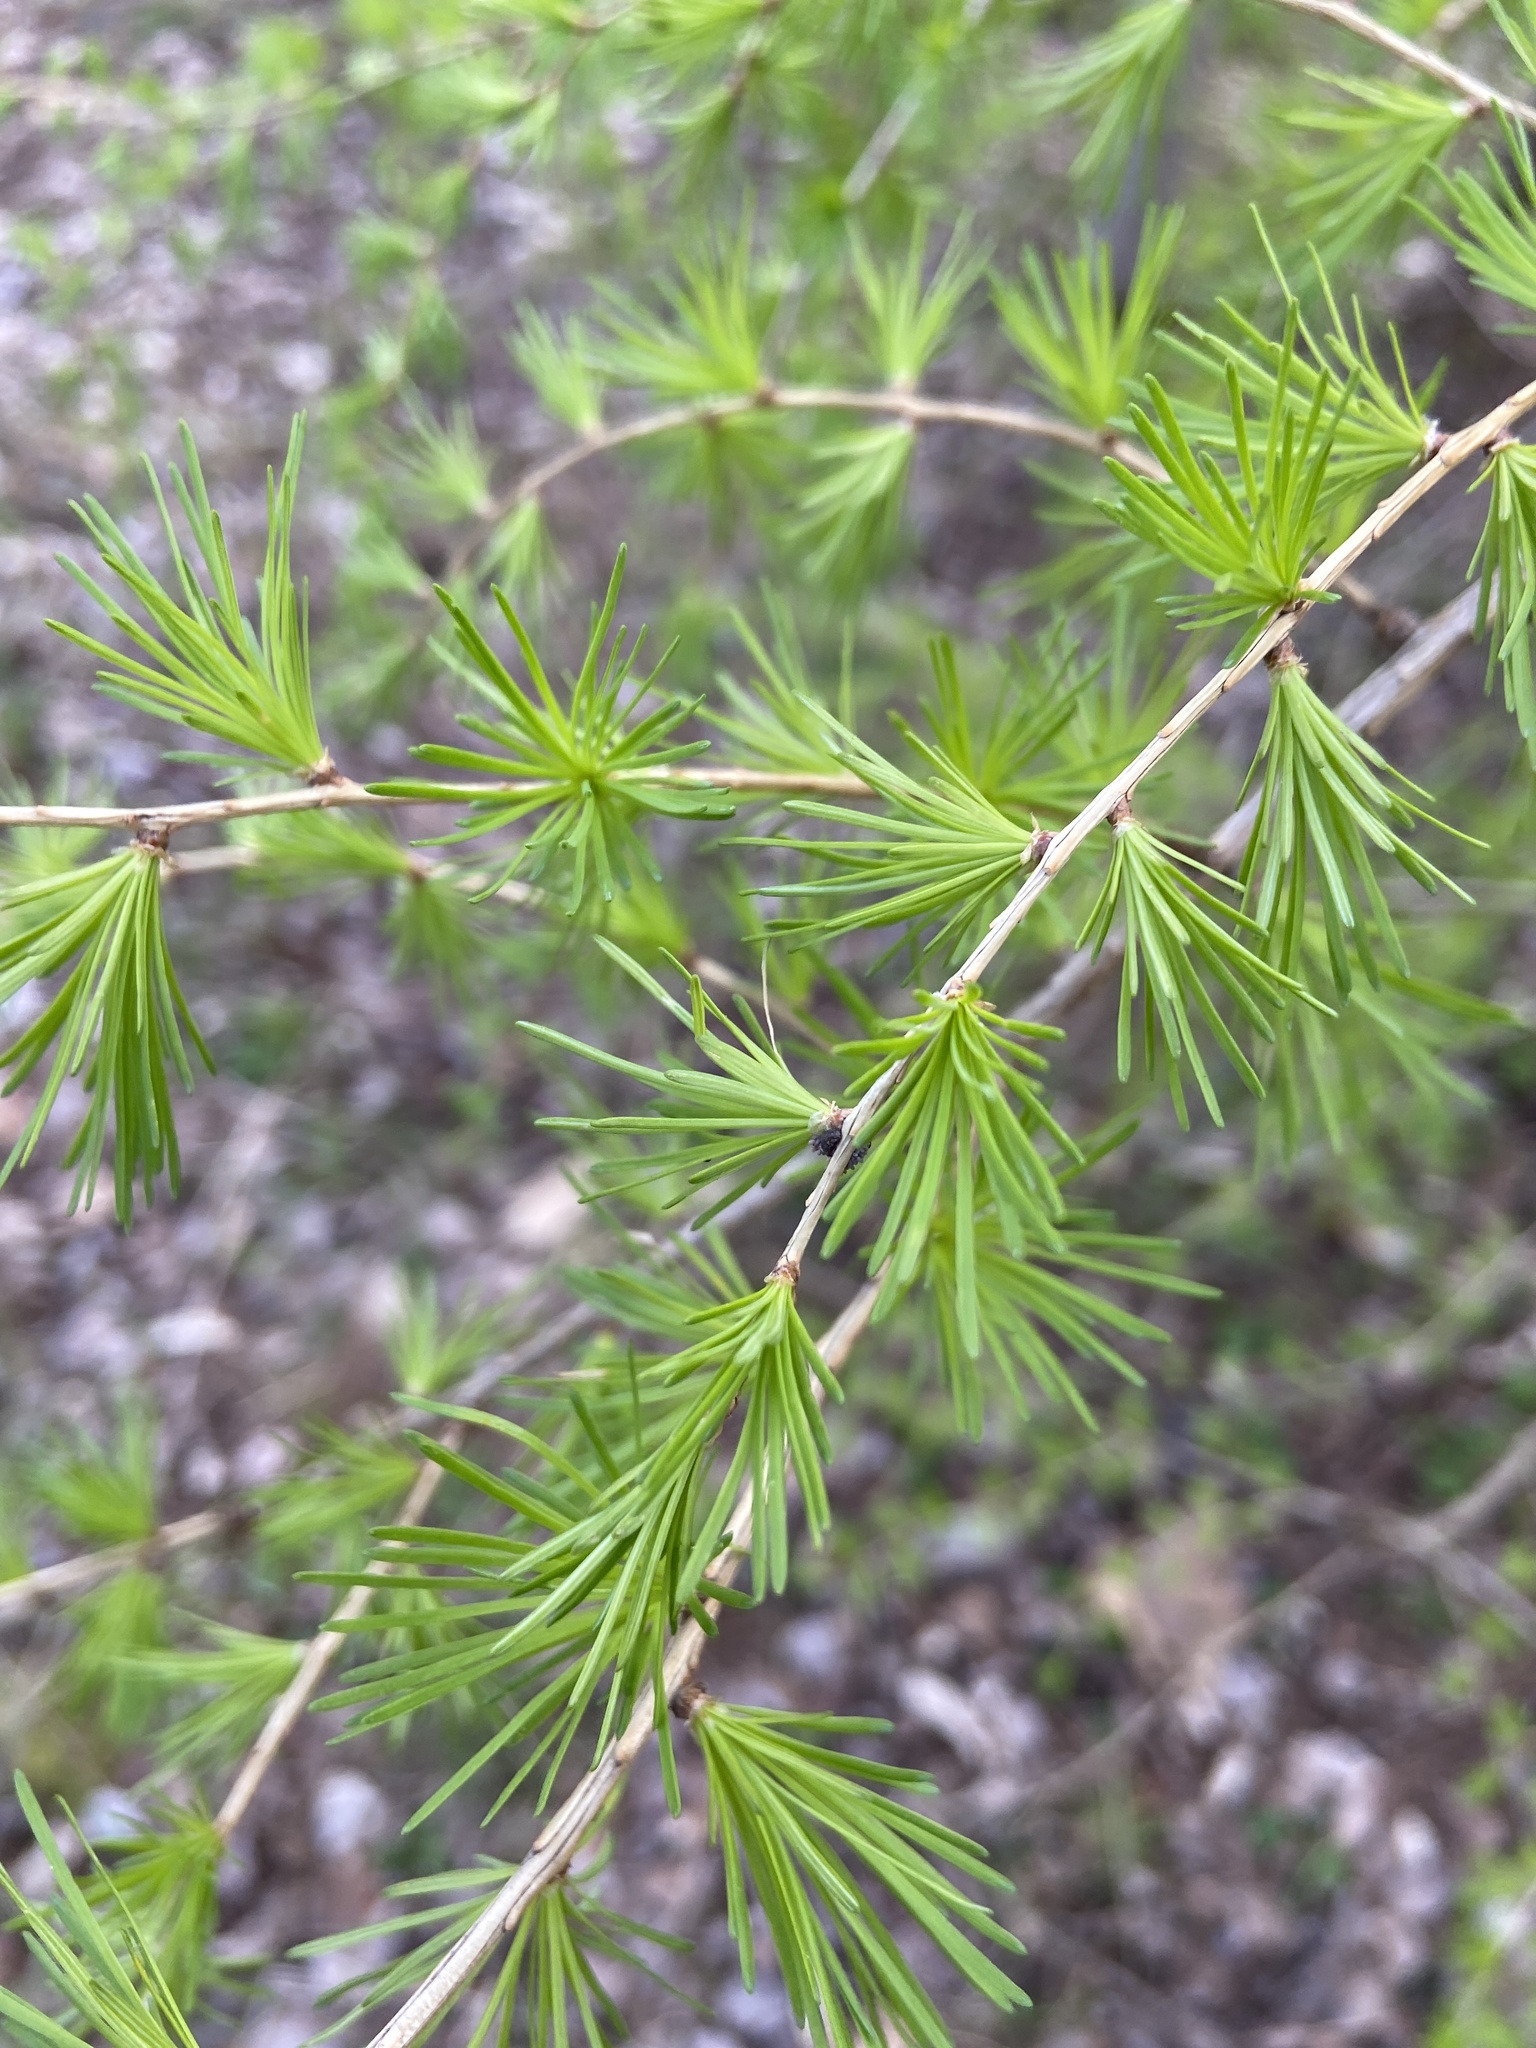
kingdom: Plantae
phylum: Tracheophyta
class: Pinopsida
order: Pinales
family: Pinaceae
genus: Larix
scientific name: Larix decidua
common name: European larch
